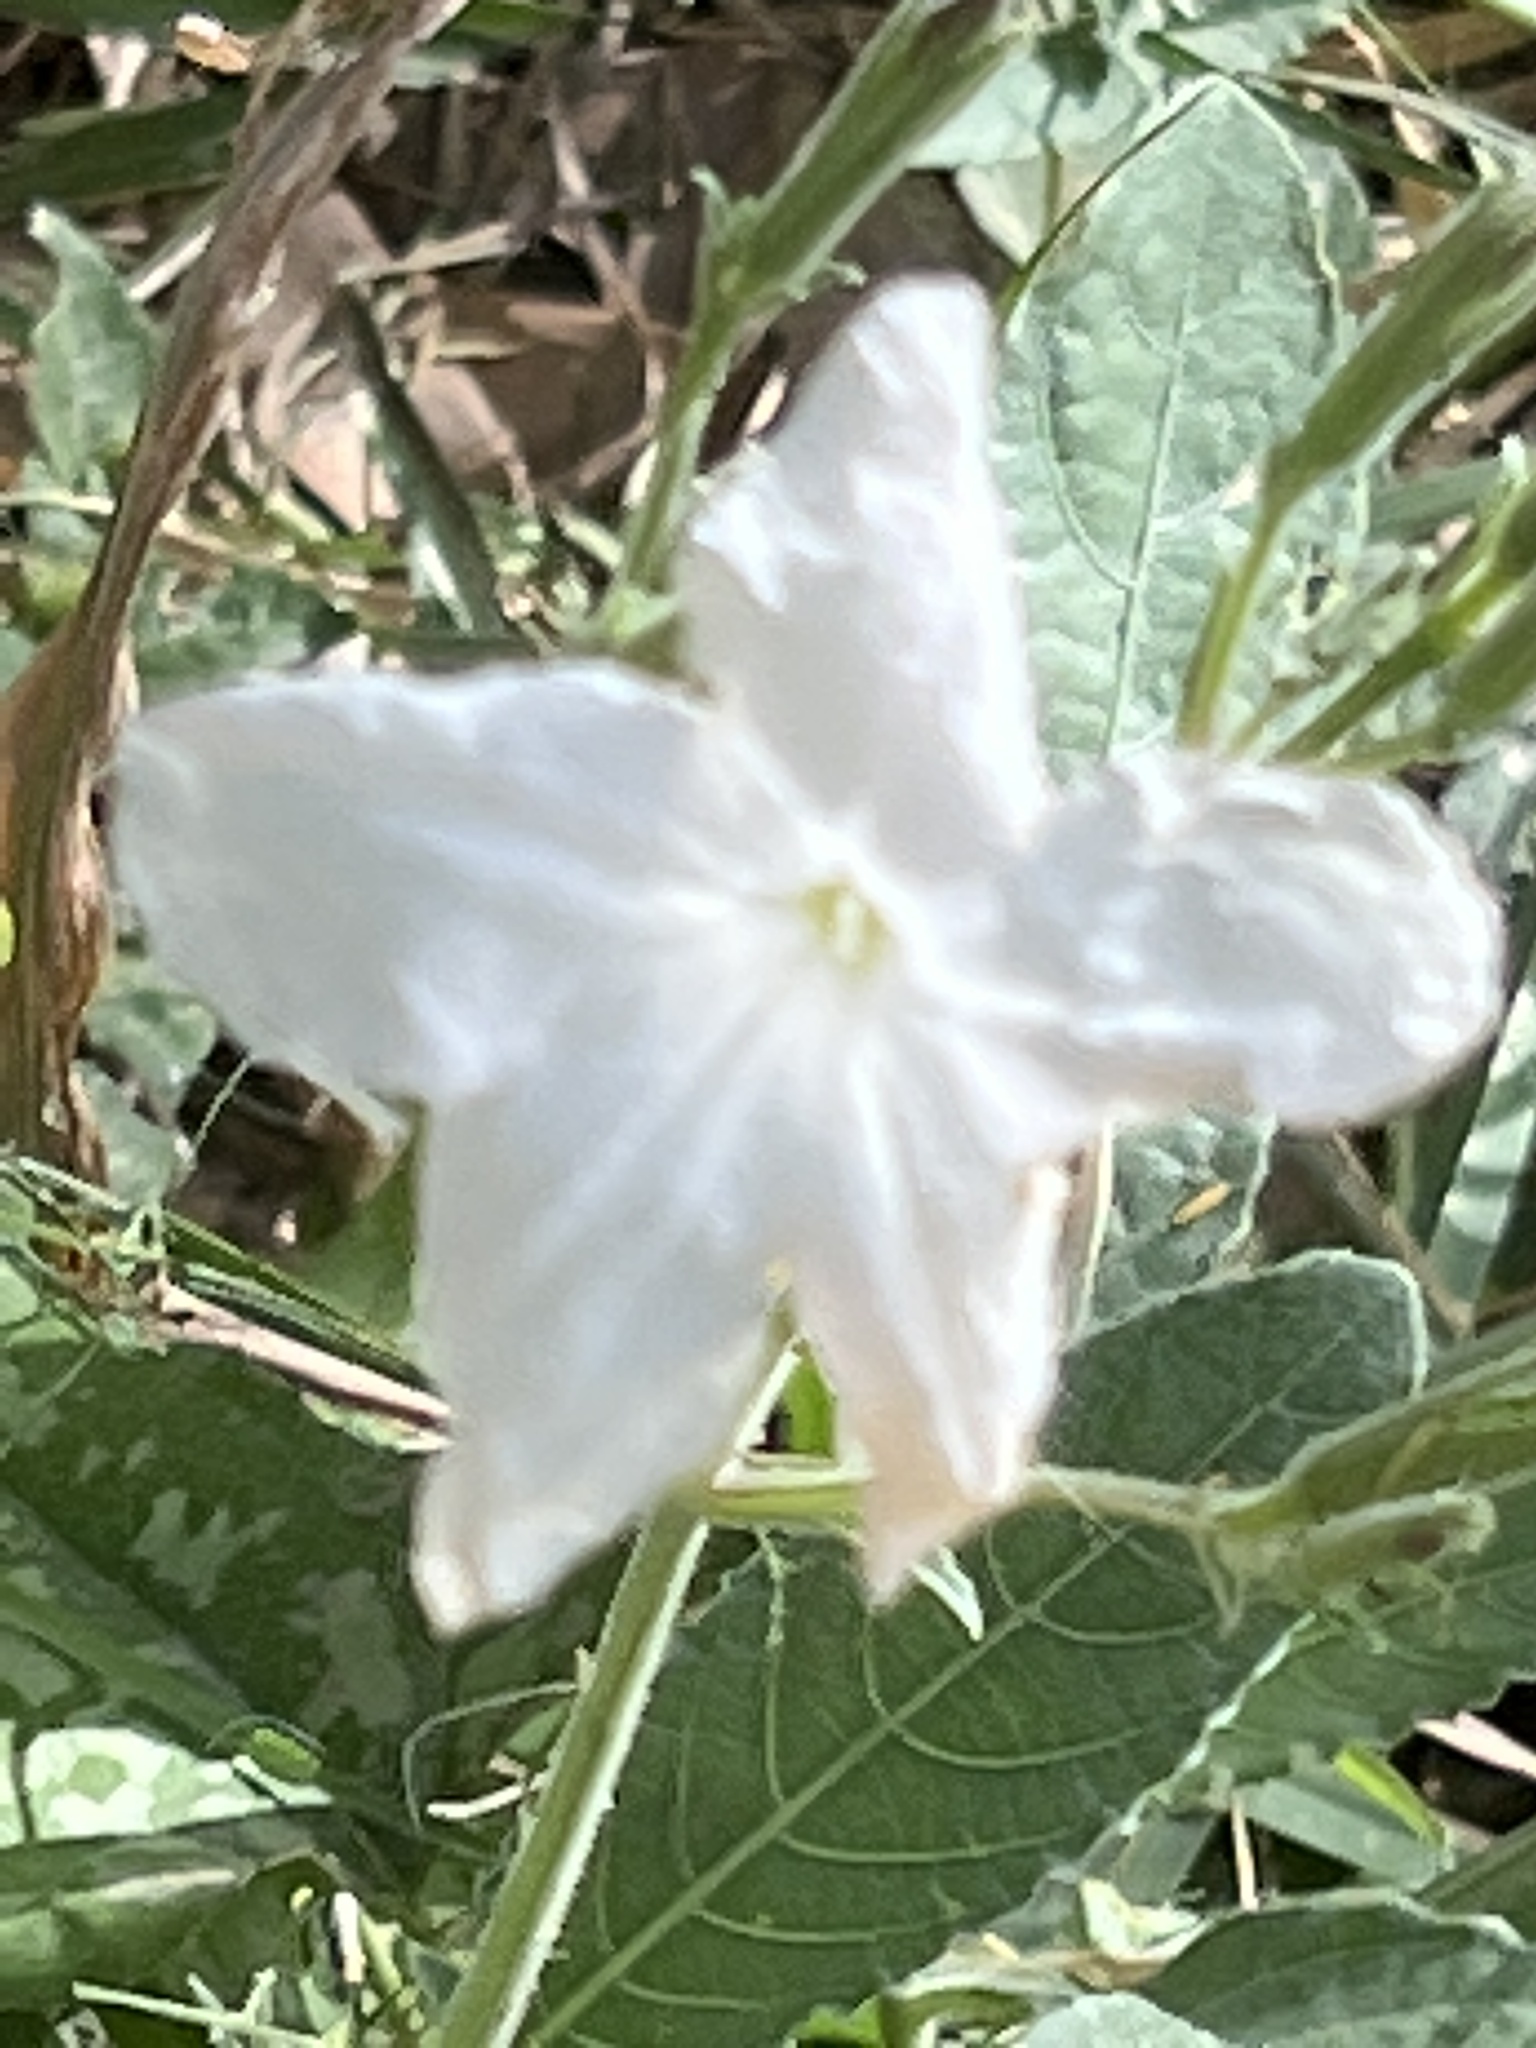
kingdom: Plantae
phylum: Tracheophyta
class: Magnoliopsida
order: Lamiales
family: Acanthaceae
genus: Ruellia
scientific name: Ruellia metziae
